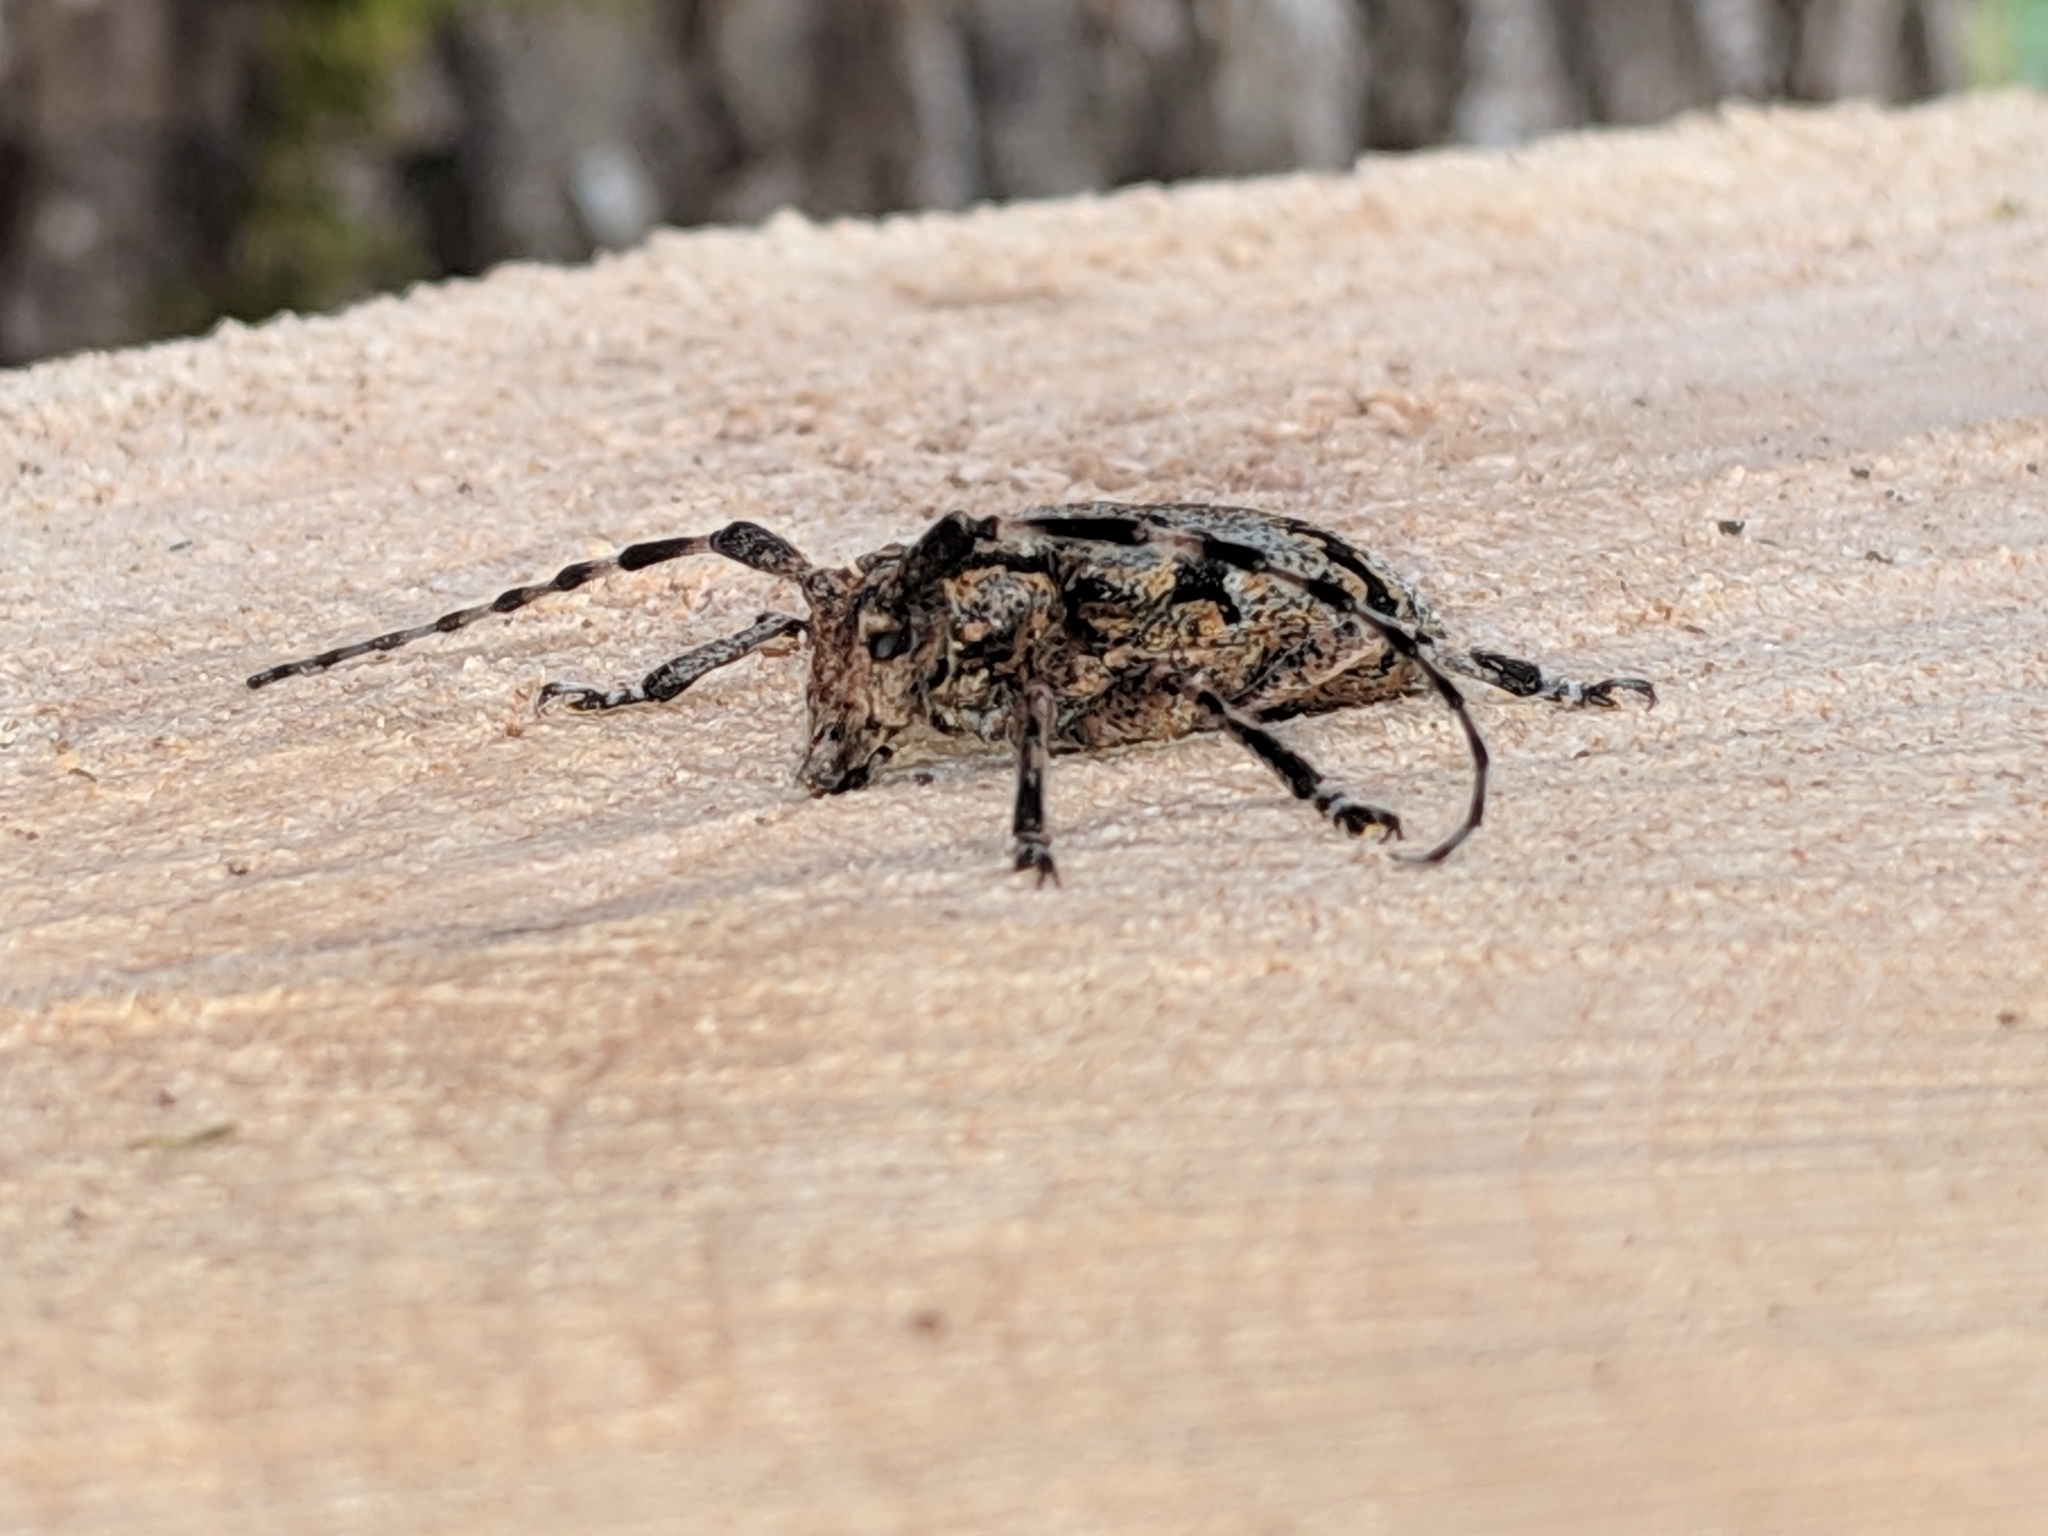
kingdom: Animalia
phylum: Arthropoda
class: Insecta
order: Coleoptera
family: Cerambycidae
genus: Synaphaeta
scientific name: Synaphaeta guexi
